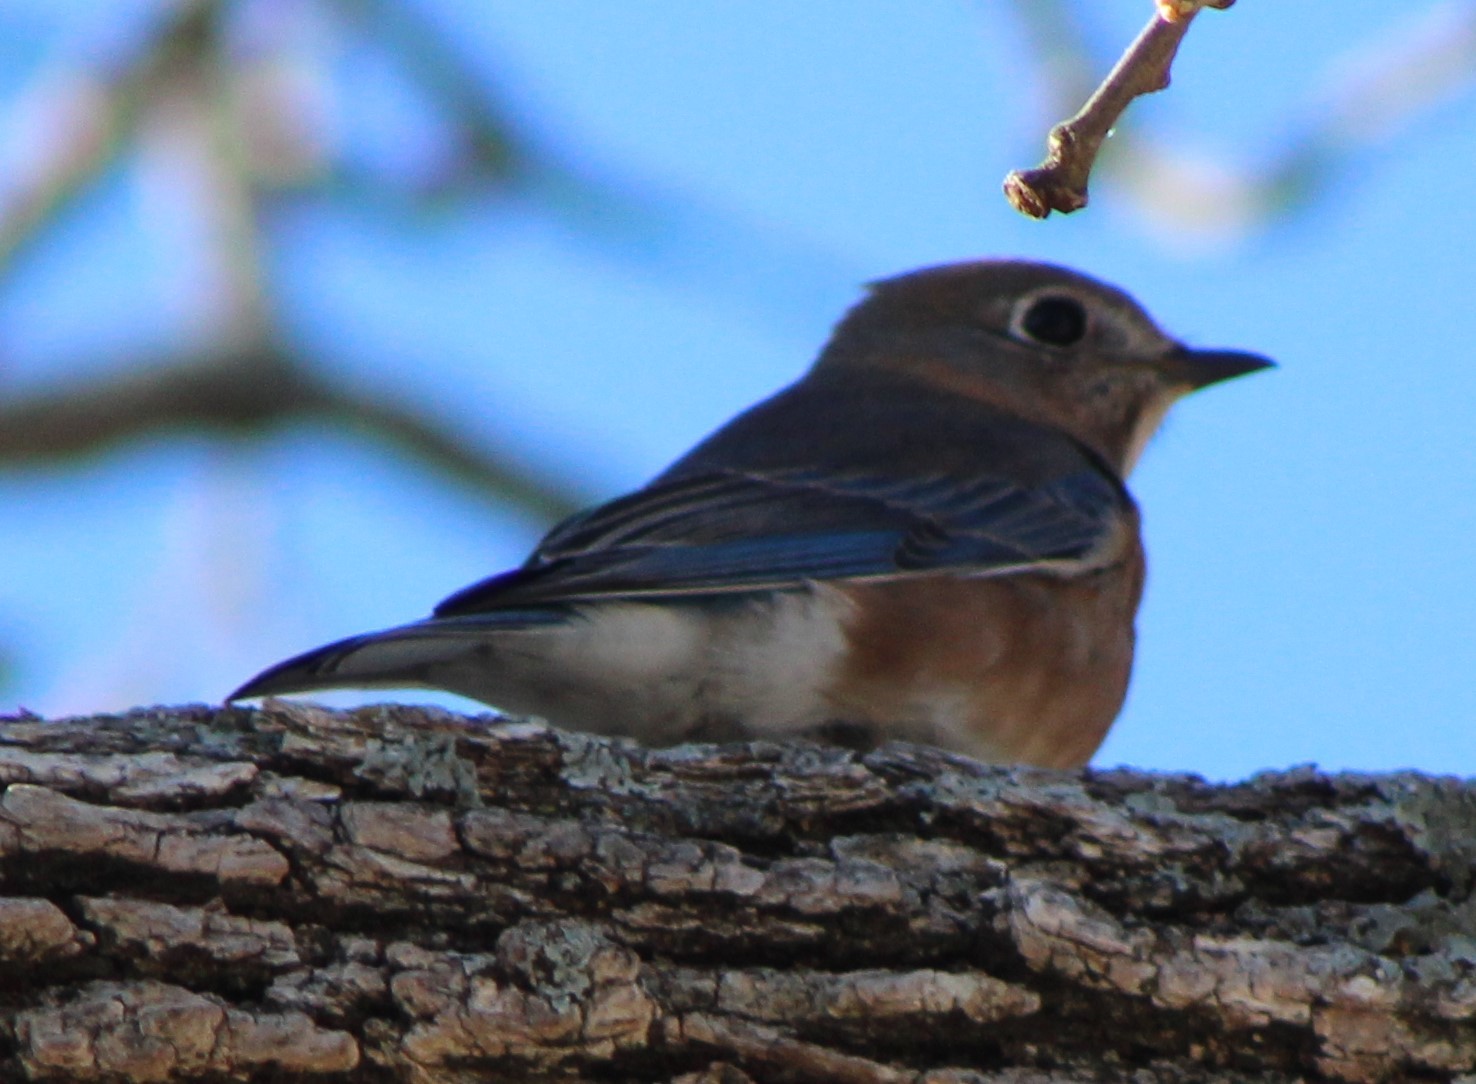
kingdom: Animalia
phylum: Chordata
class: Aves
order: Passeriformes
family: Turdidae
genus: Sialia
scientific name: Sialia sialis
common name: Eastern bluebird
